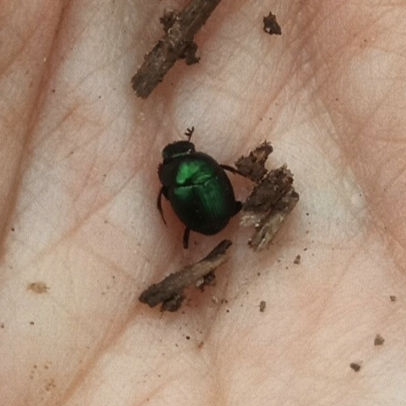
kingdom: Animalia
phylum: Arthropoda
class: Insecta
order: Coleoptera
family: Scarabaeidae
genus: Canthon
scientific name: Canthon viridis
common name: Tumblebug
